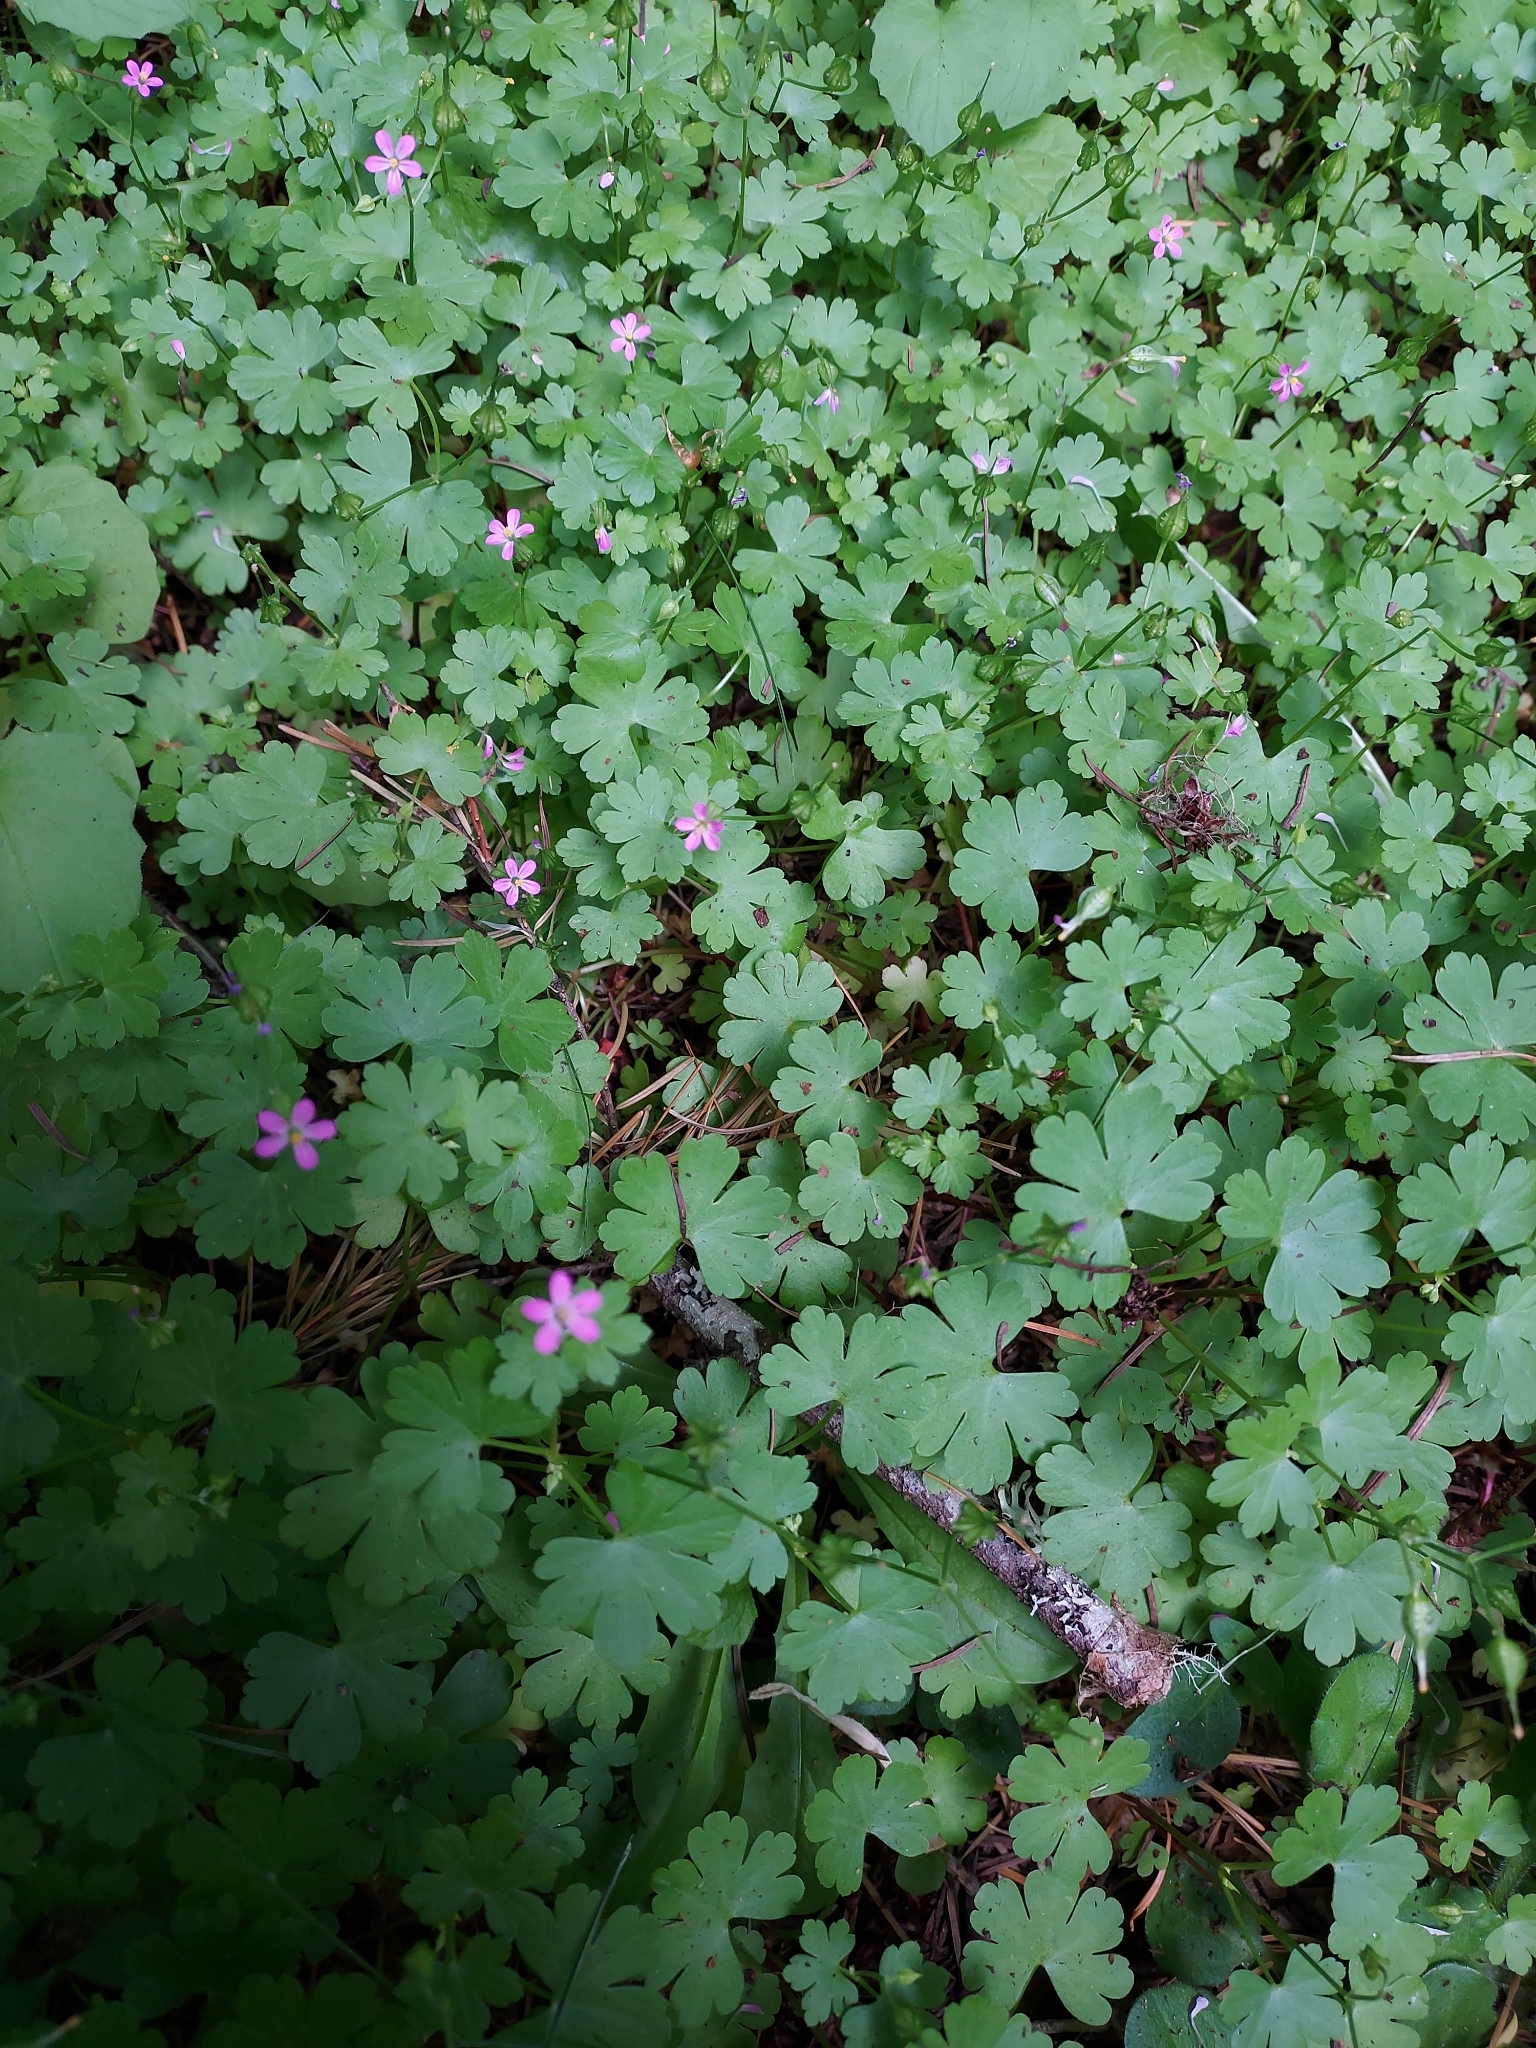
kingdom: Plantae
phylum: Tracheophyta
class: Magnoliopsida
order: Geraniales
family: Geraniaceae
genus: Geranium
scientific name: Geranium lucidum
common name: Shining crane's-bill
